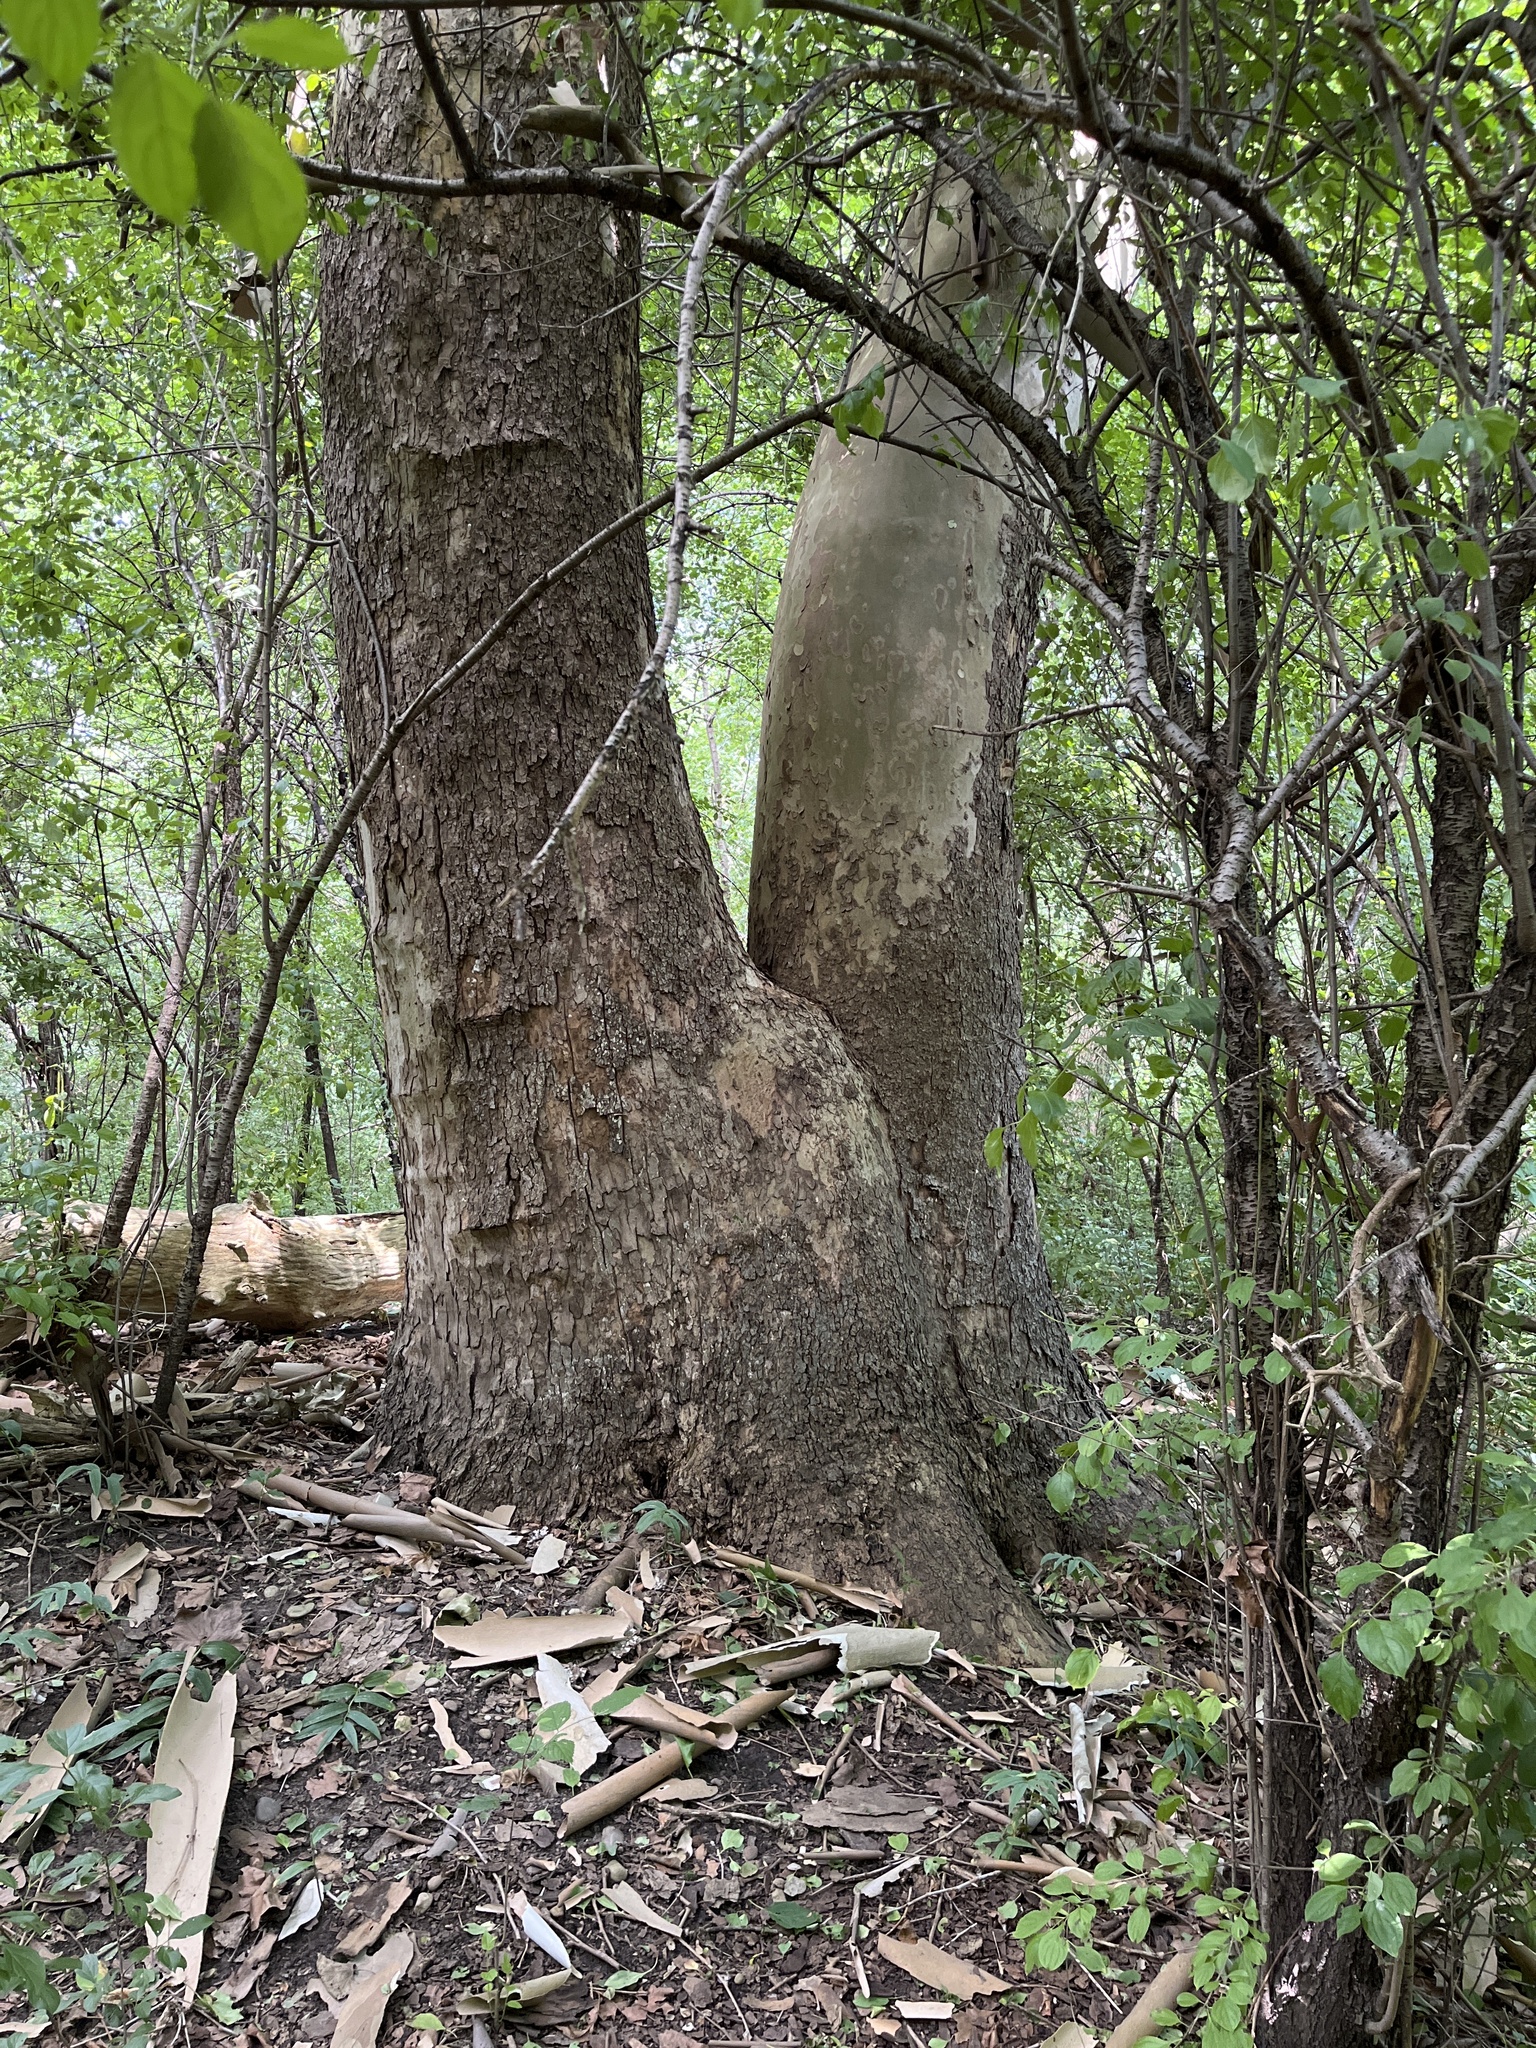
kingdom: Plantae
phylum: Tracheophyta
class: Magnoliopsida
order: Proteales
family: Platanaceae
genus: Platanus
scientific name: Platanus occidentalis
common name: American sycamore
